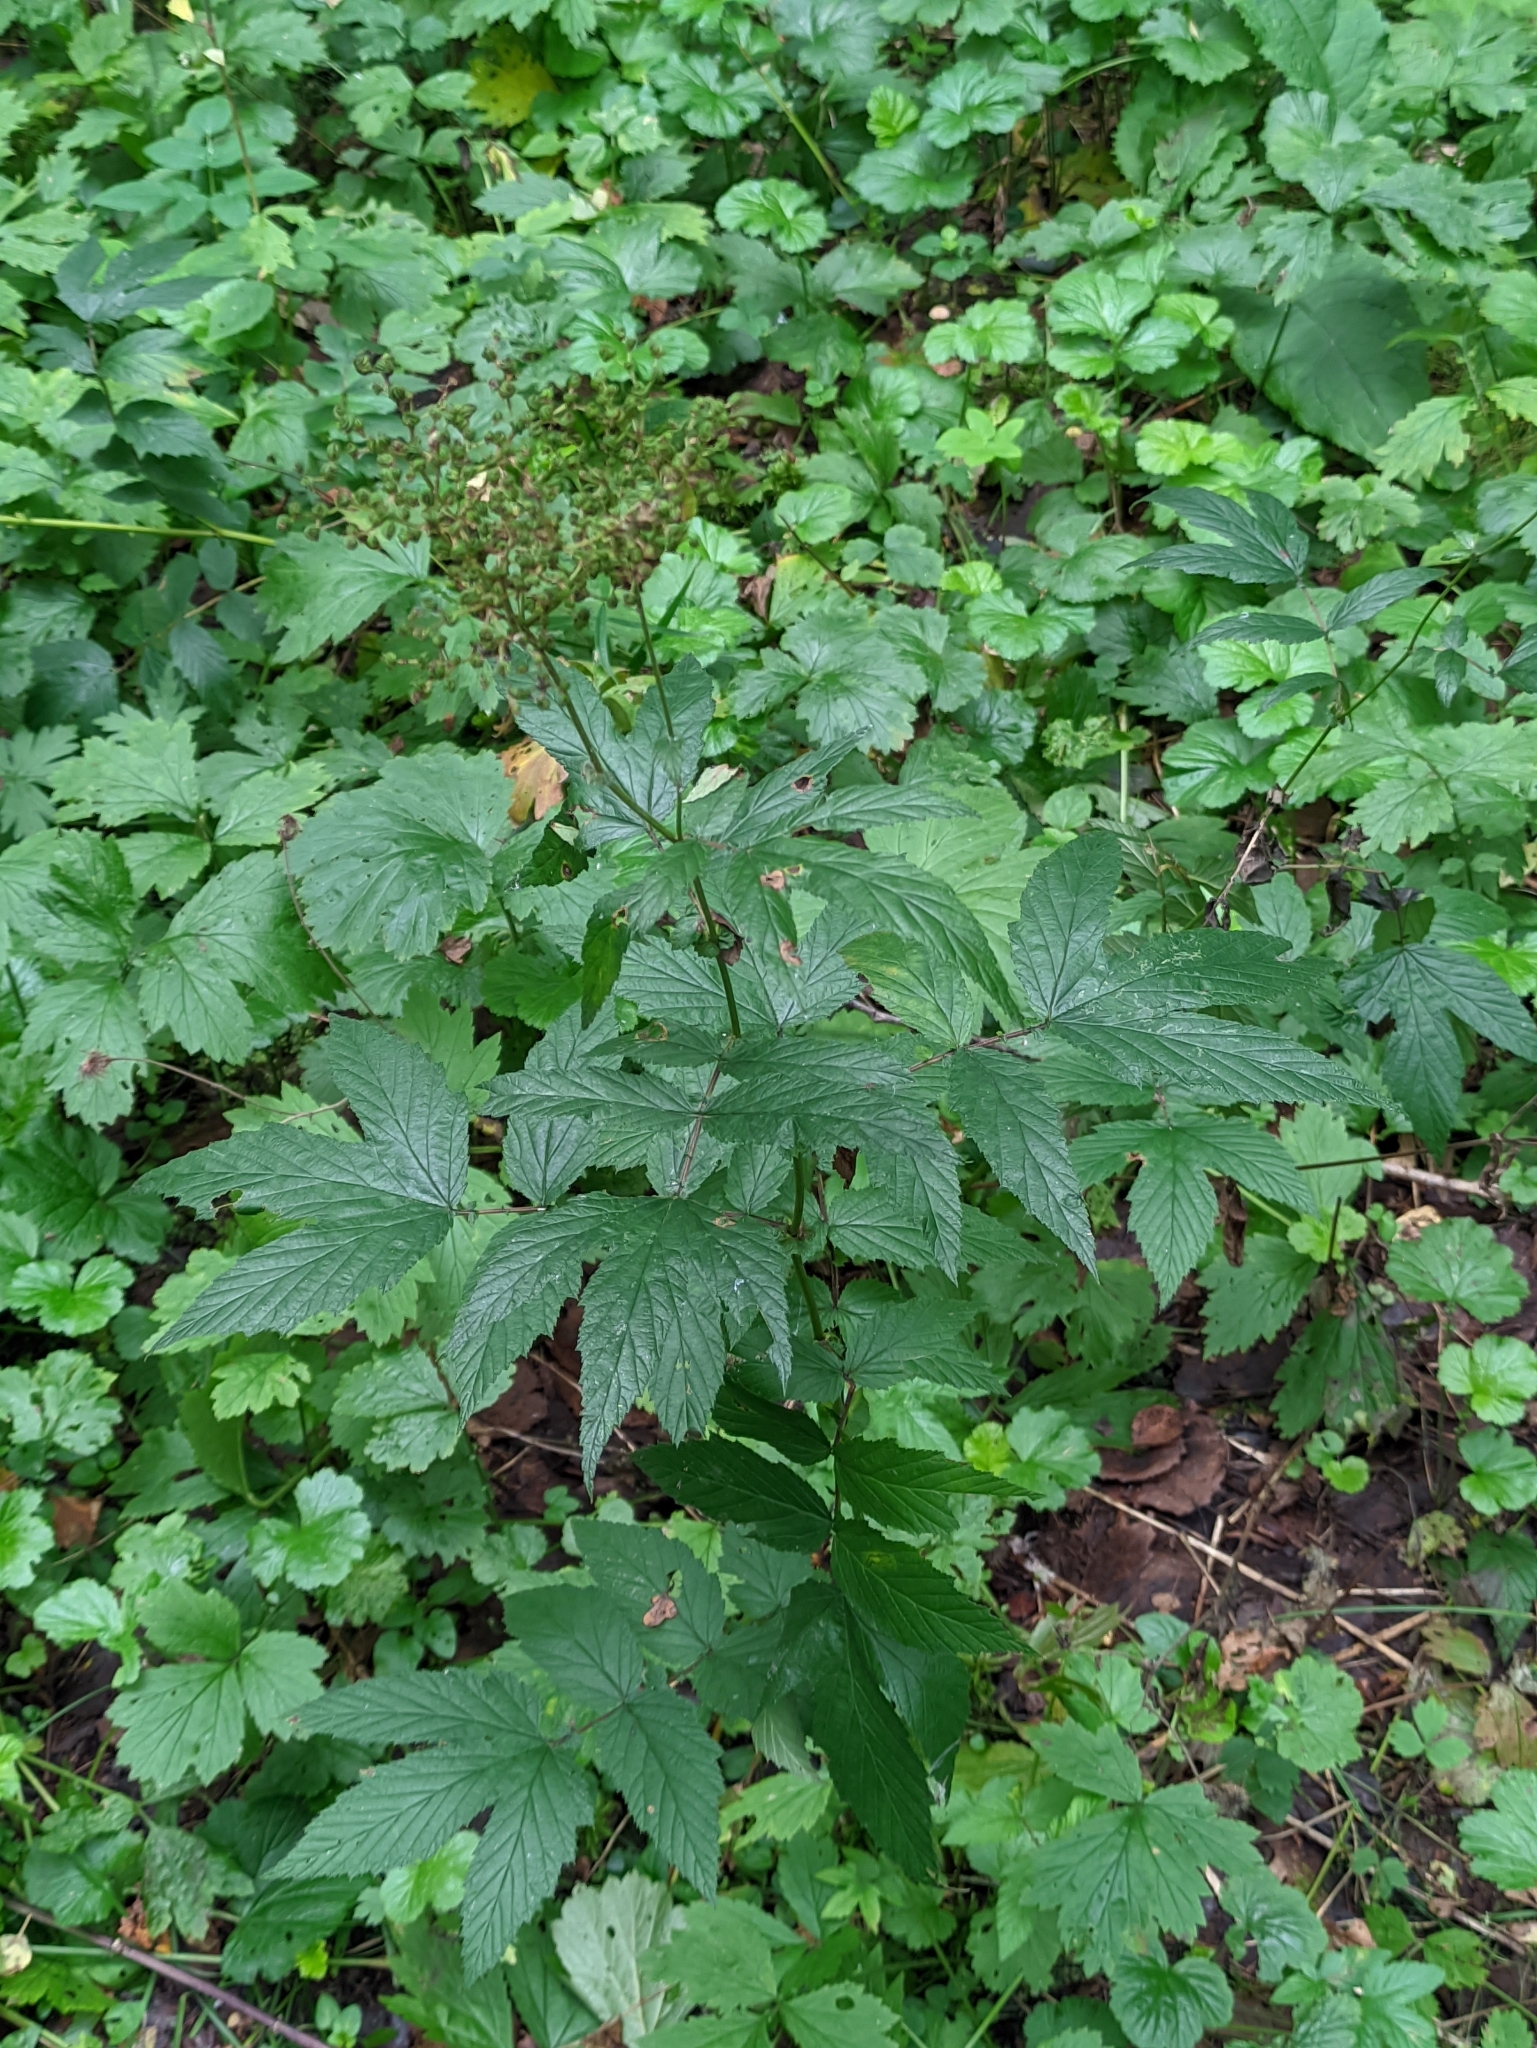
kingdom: Plantae
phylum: Tracheophyta
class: Magnoliopsida
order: Rosales
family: Rosaceae
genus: Filipendula
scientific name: Filipendula ulmaria
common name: Meadowsweet
